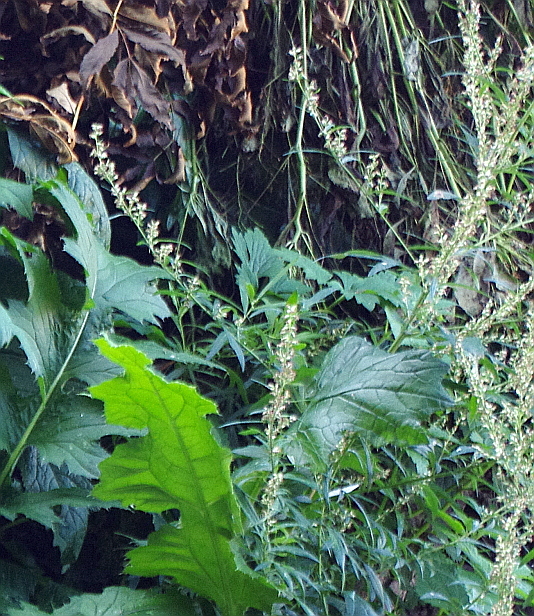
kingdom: Plantae
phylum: Tracheophyta
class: Magnoliopsida
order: Asterales
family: Asteraceae
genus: Artemisia
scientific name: Artemisia vulgaris
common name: Mugwort
